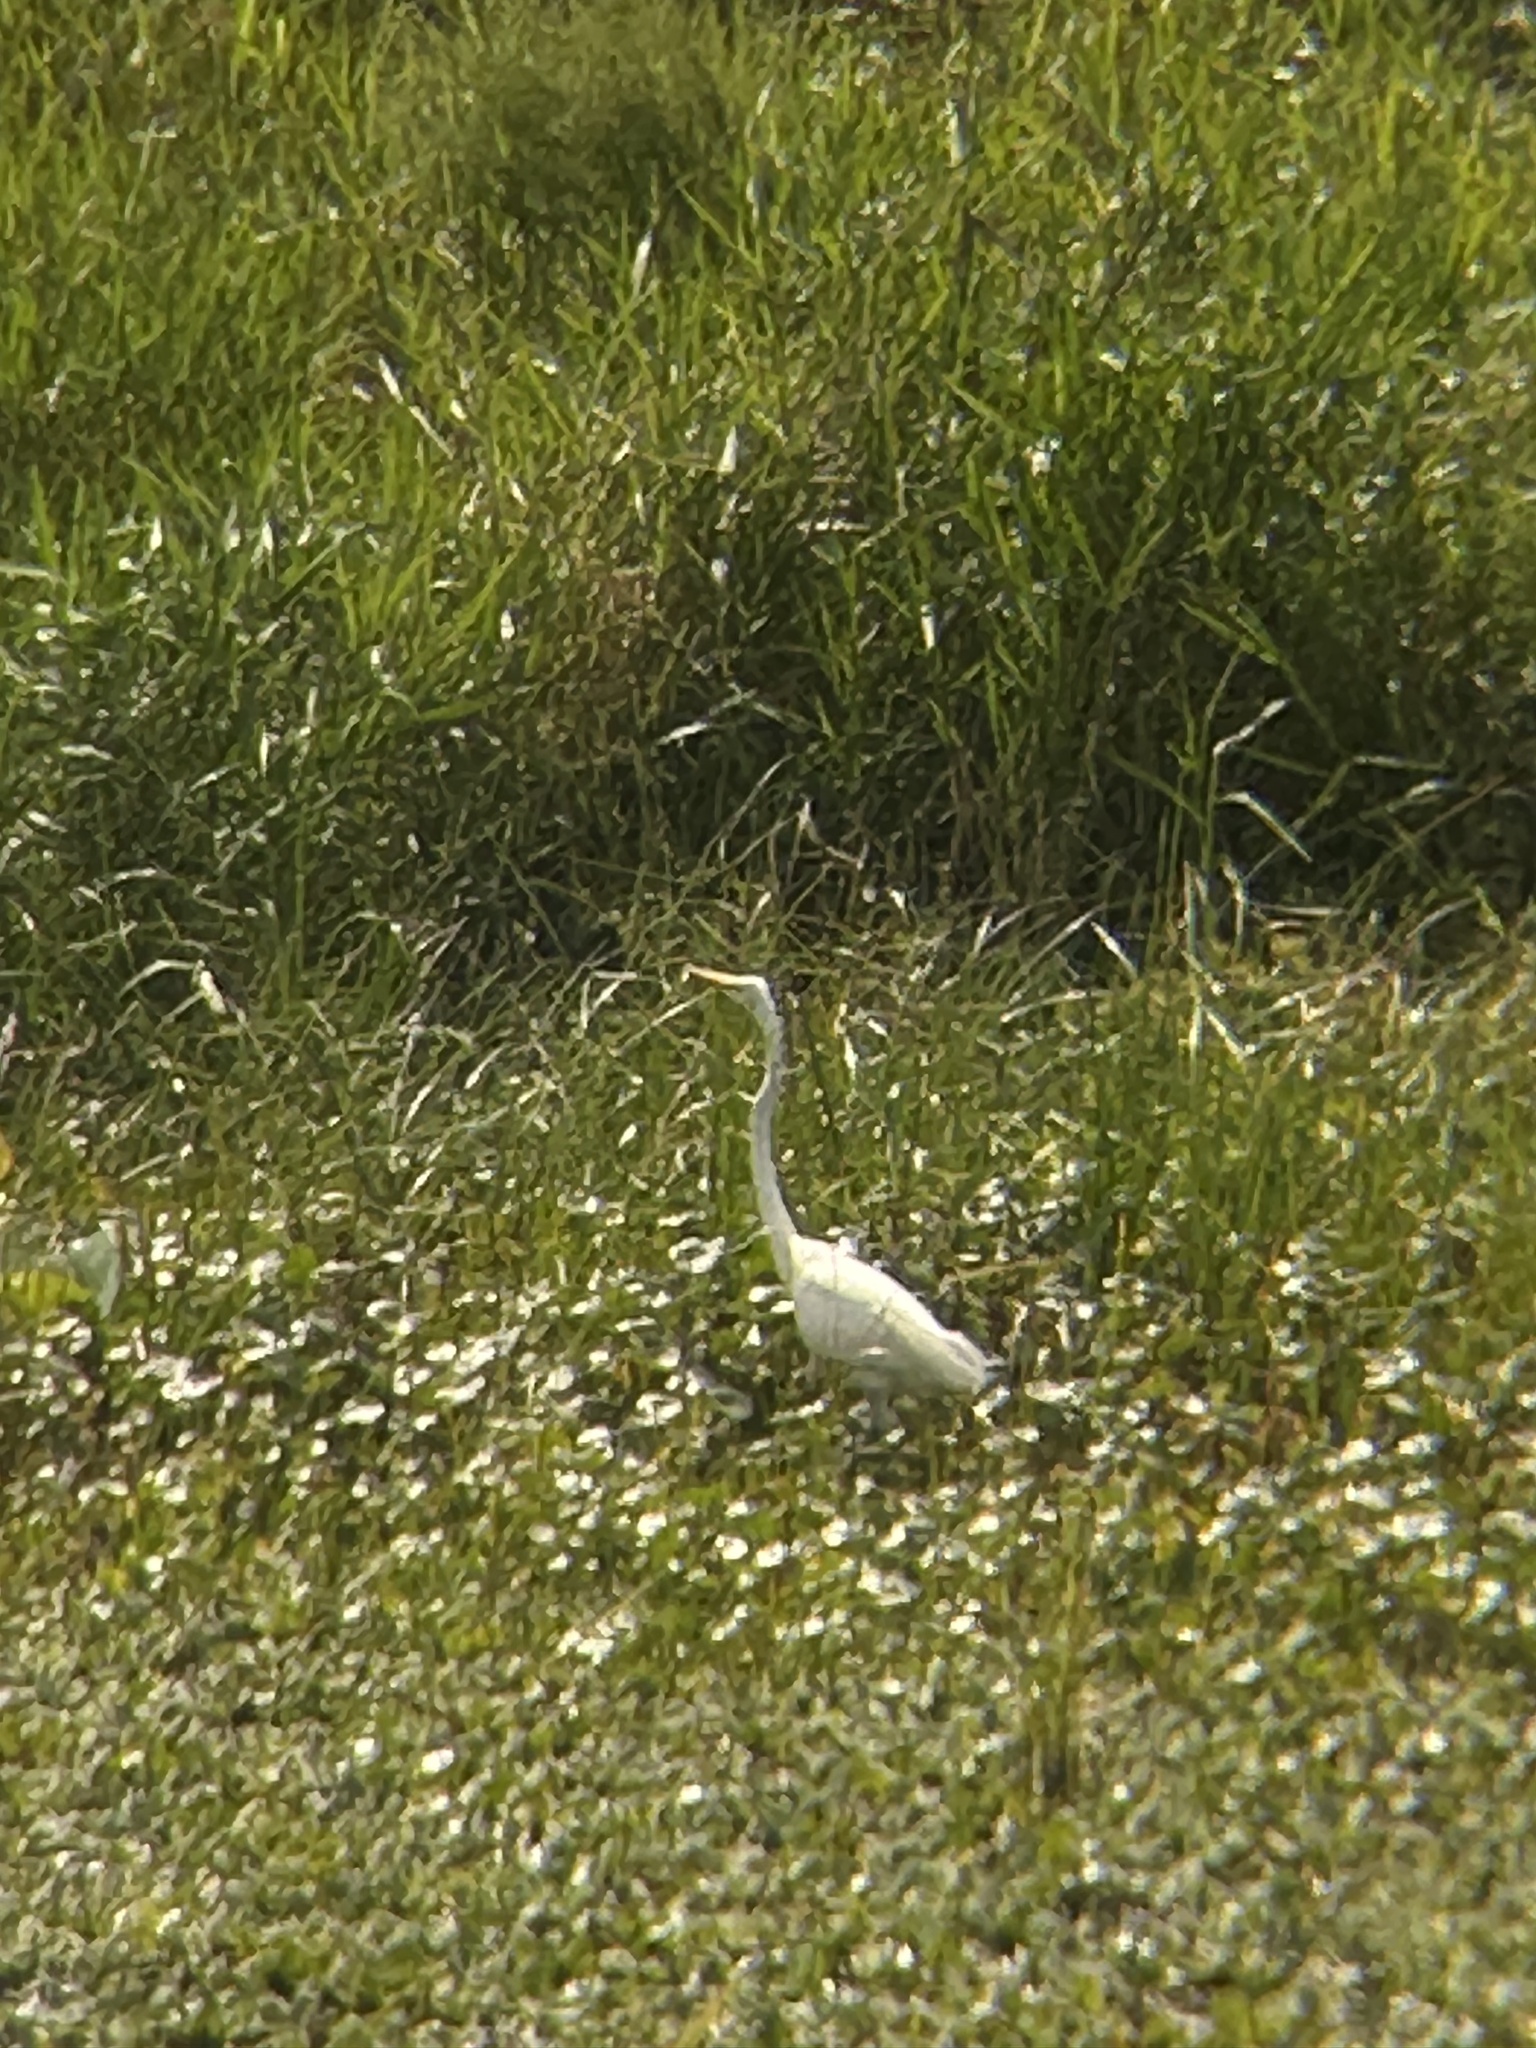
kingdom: Animalia
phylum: Chordata
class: Aves
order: Pelecaniformes
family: Ardeidae
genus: Ardea
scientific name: Ardea alba
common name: Great egret
